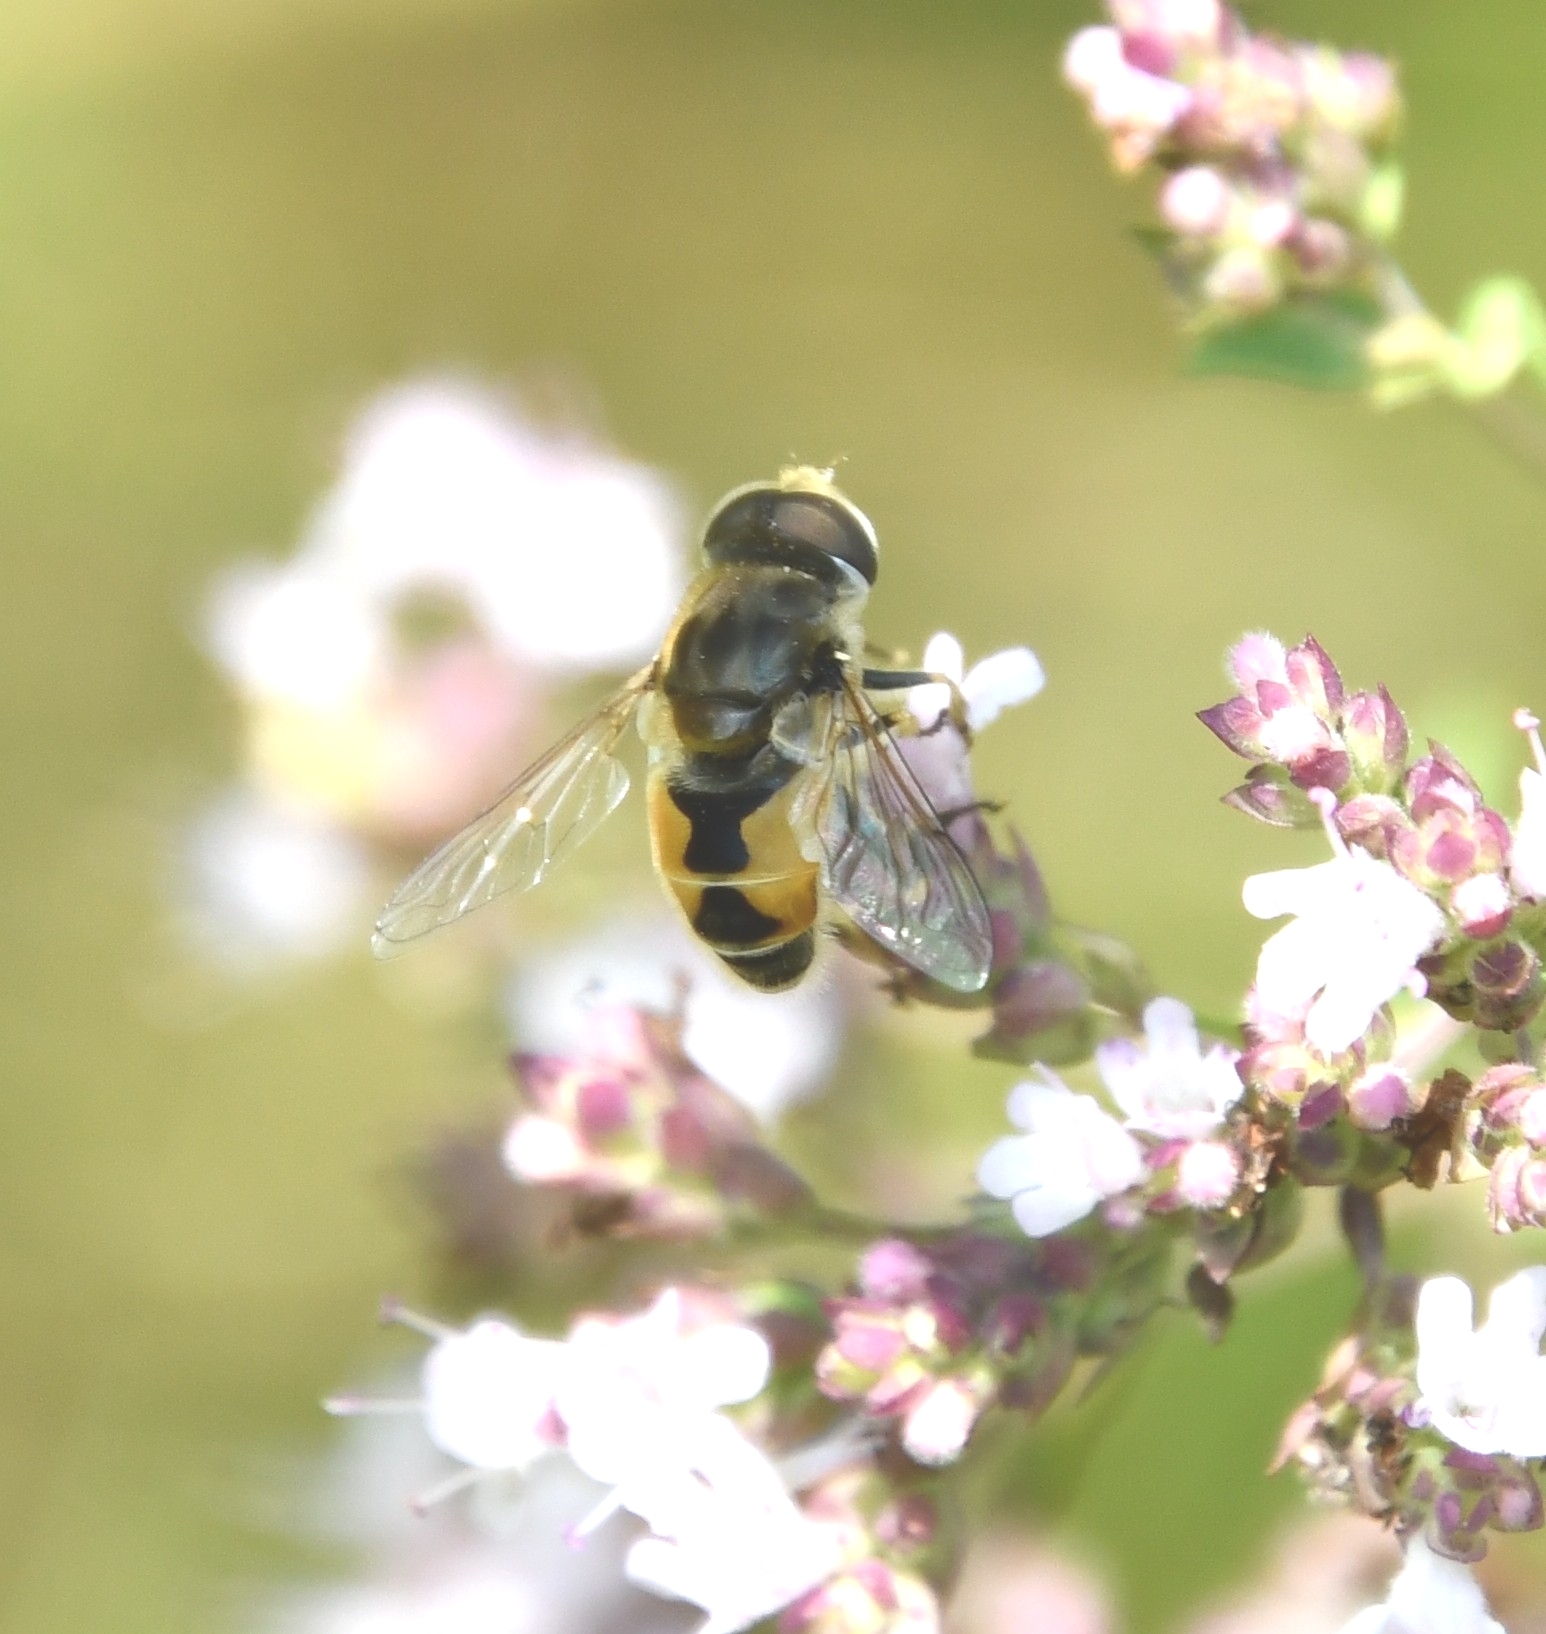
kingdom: Animalia
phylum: Arthropoda
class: Insecta
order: Diptera
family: Syrphidae
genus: Eristalis
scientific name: Eristalis arbustorum
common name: Hover fly
